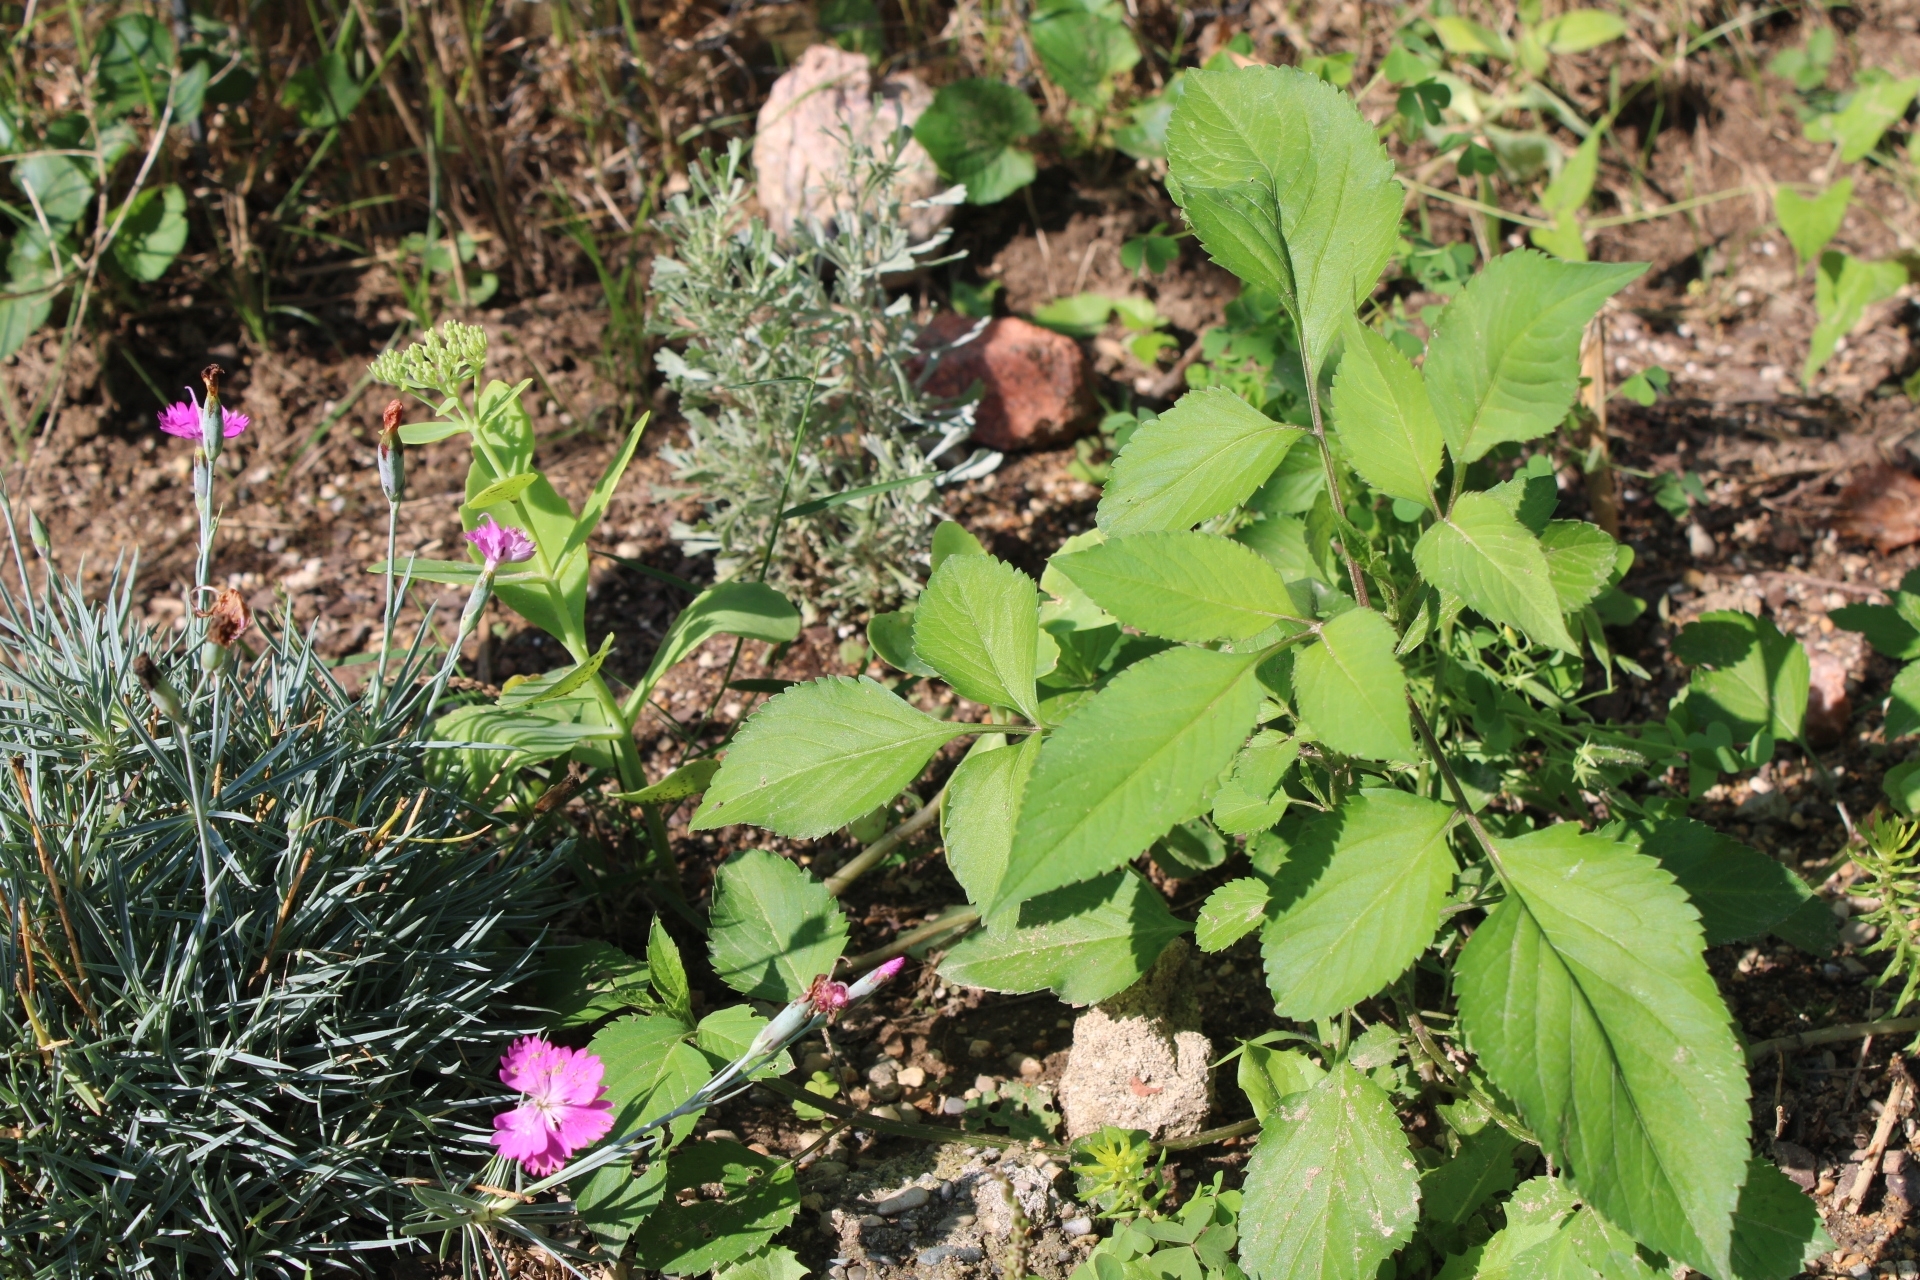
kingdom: Plantae
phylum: Tracheophyta
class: Magnoliopsida
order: Asterales
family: Asteraceae
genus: Bidens
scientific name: Bidens alba
